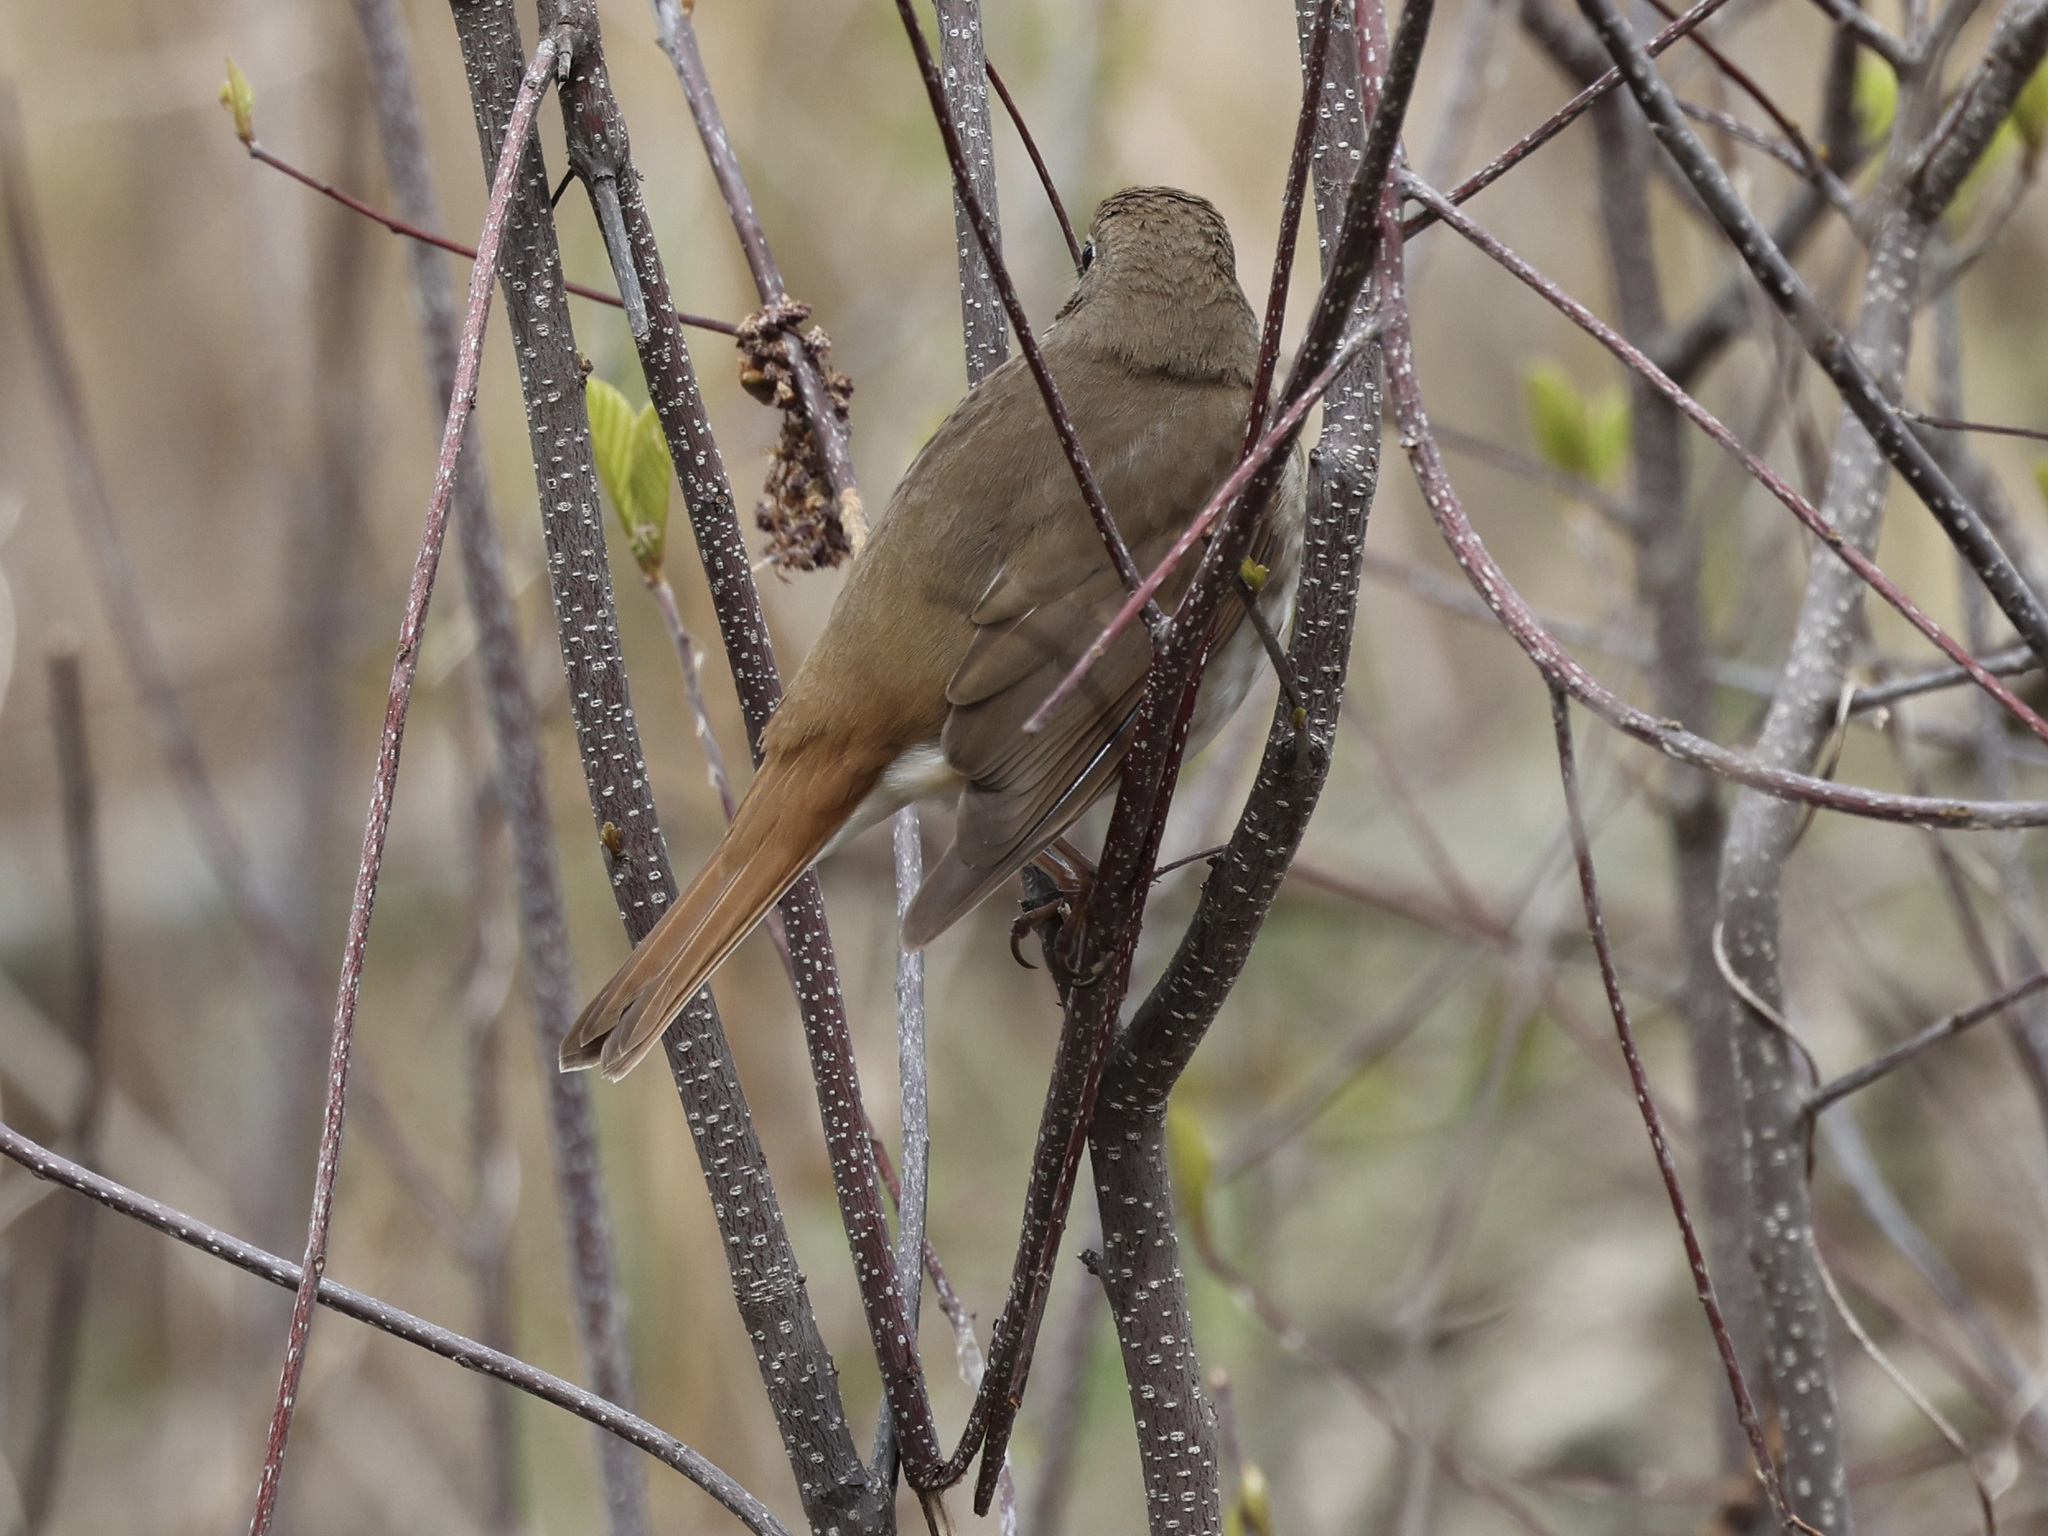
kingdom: Animalia
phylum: Chordata
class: Aves
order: Passeriformes
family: Turdidae
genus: Catharus
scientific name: Catharus guttatus
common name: Hermit thrush
